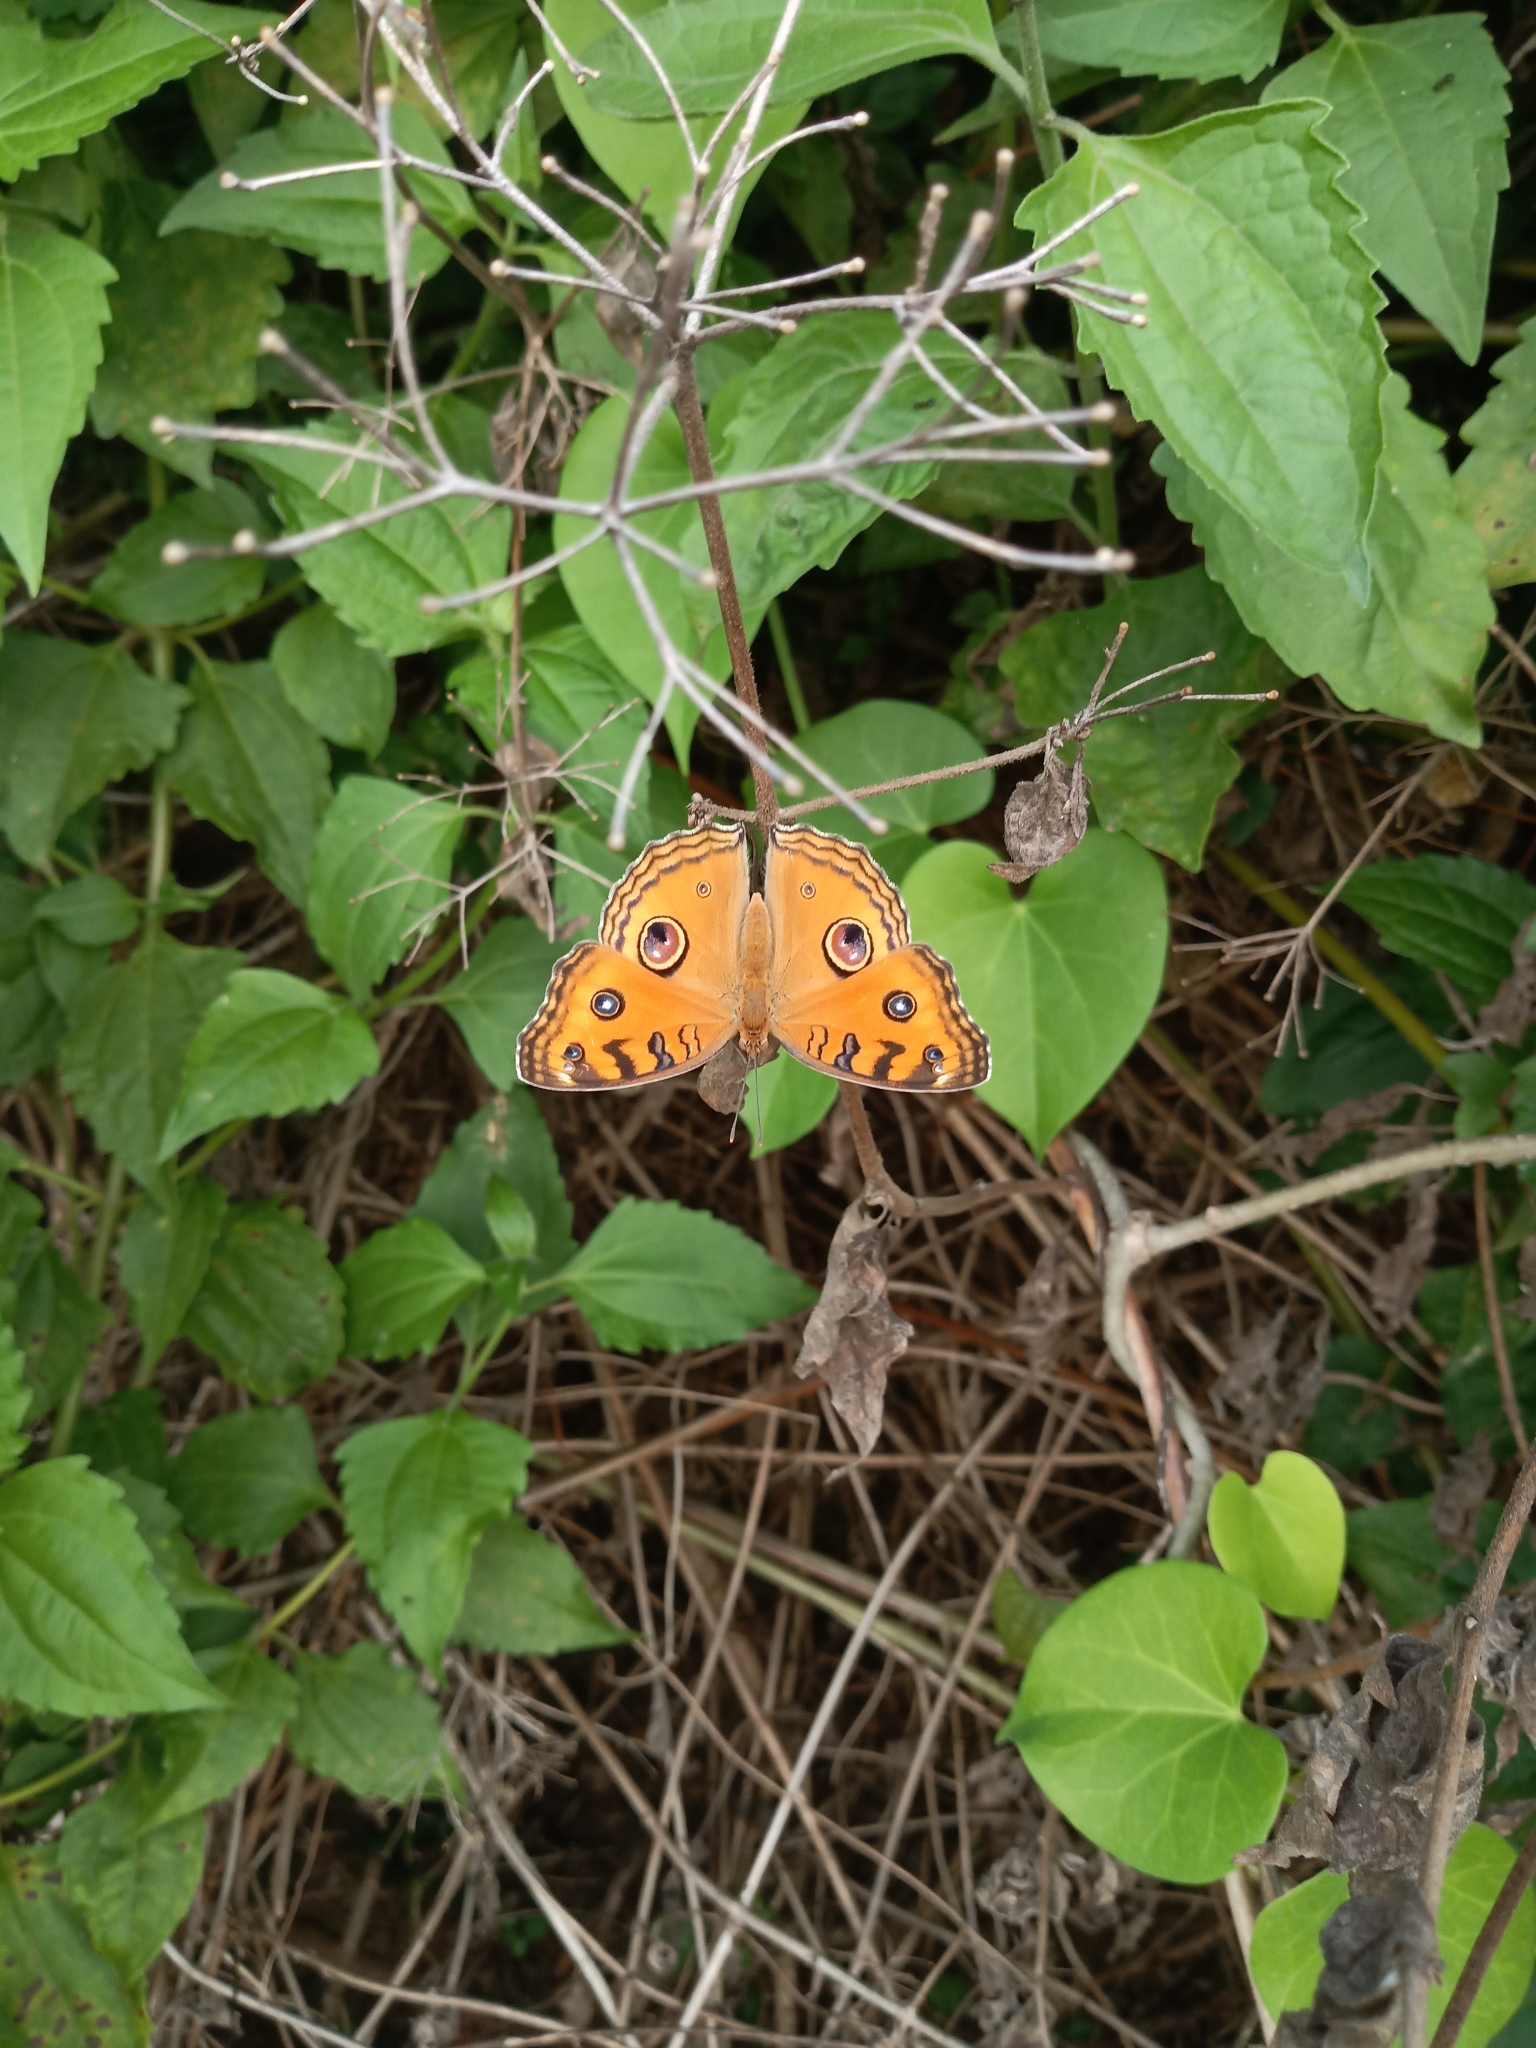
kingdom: Animalia
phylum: Arthropoda
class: Insecta
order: Lepidoptera
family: Nymphalidae
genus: Junonia
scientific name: Junonia almana
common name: Peacock pansy
